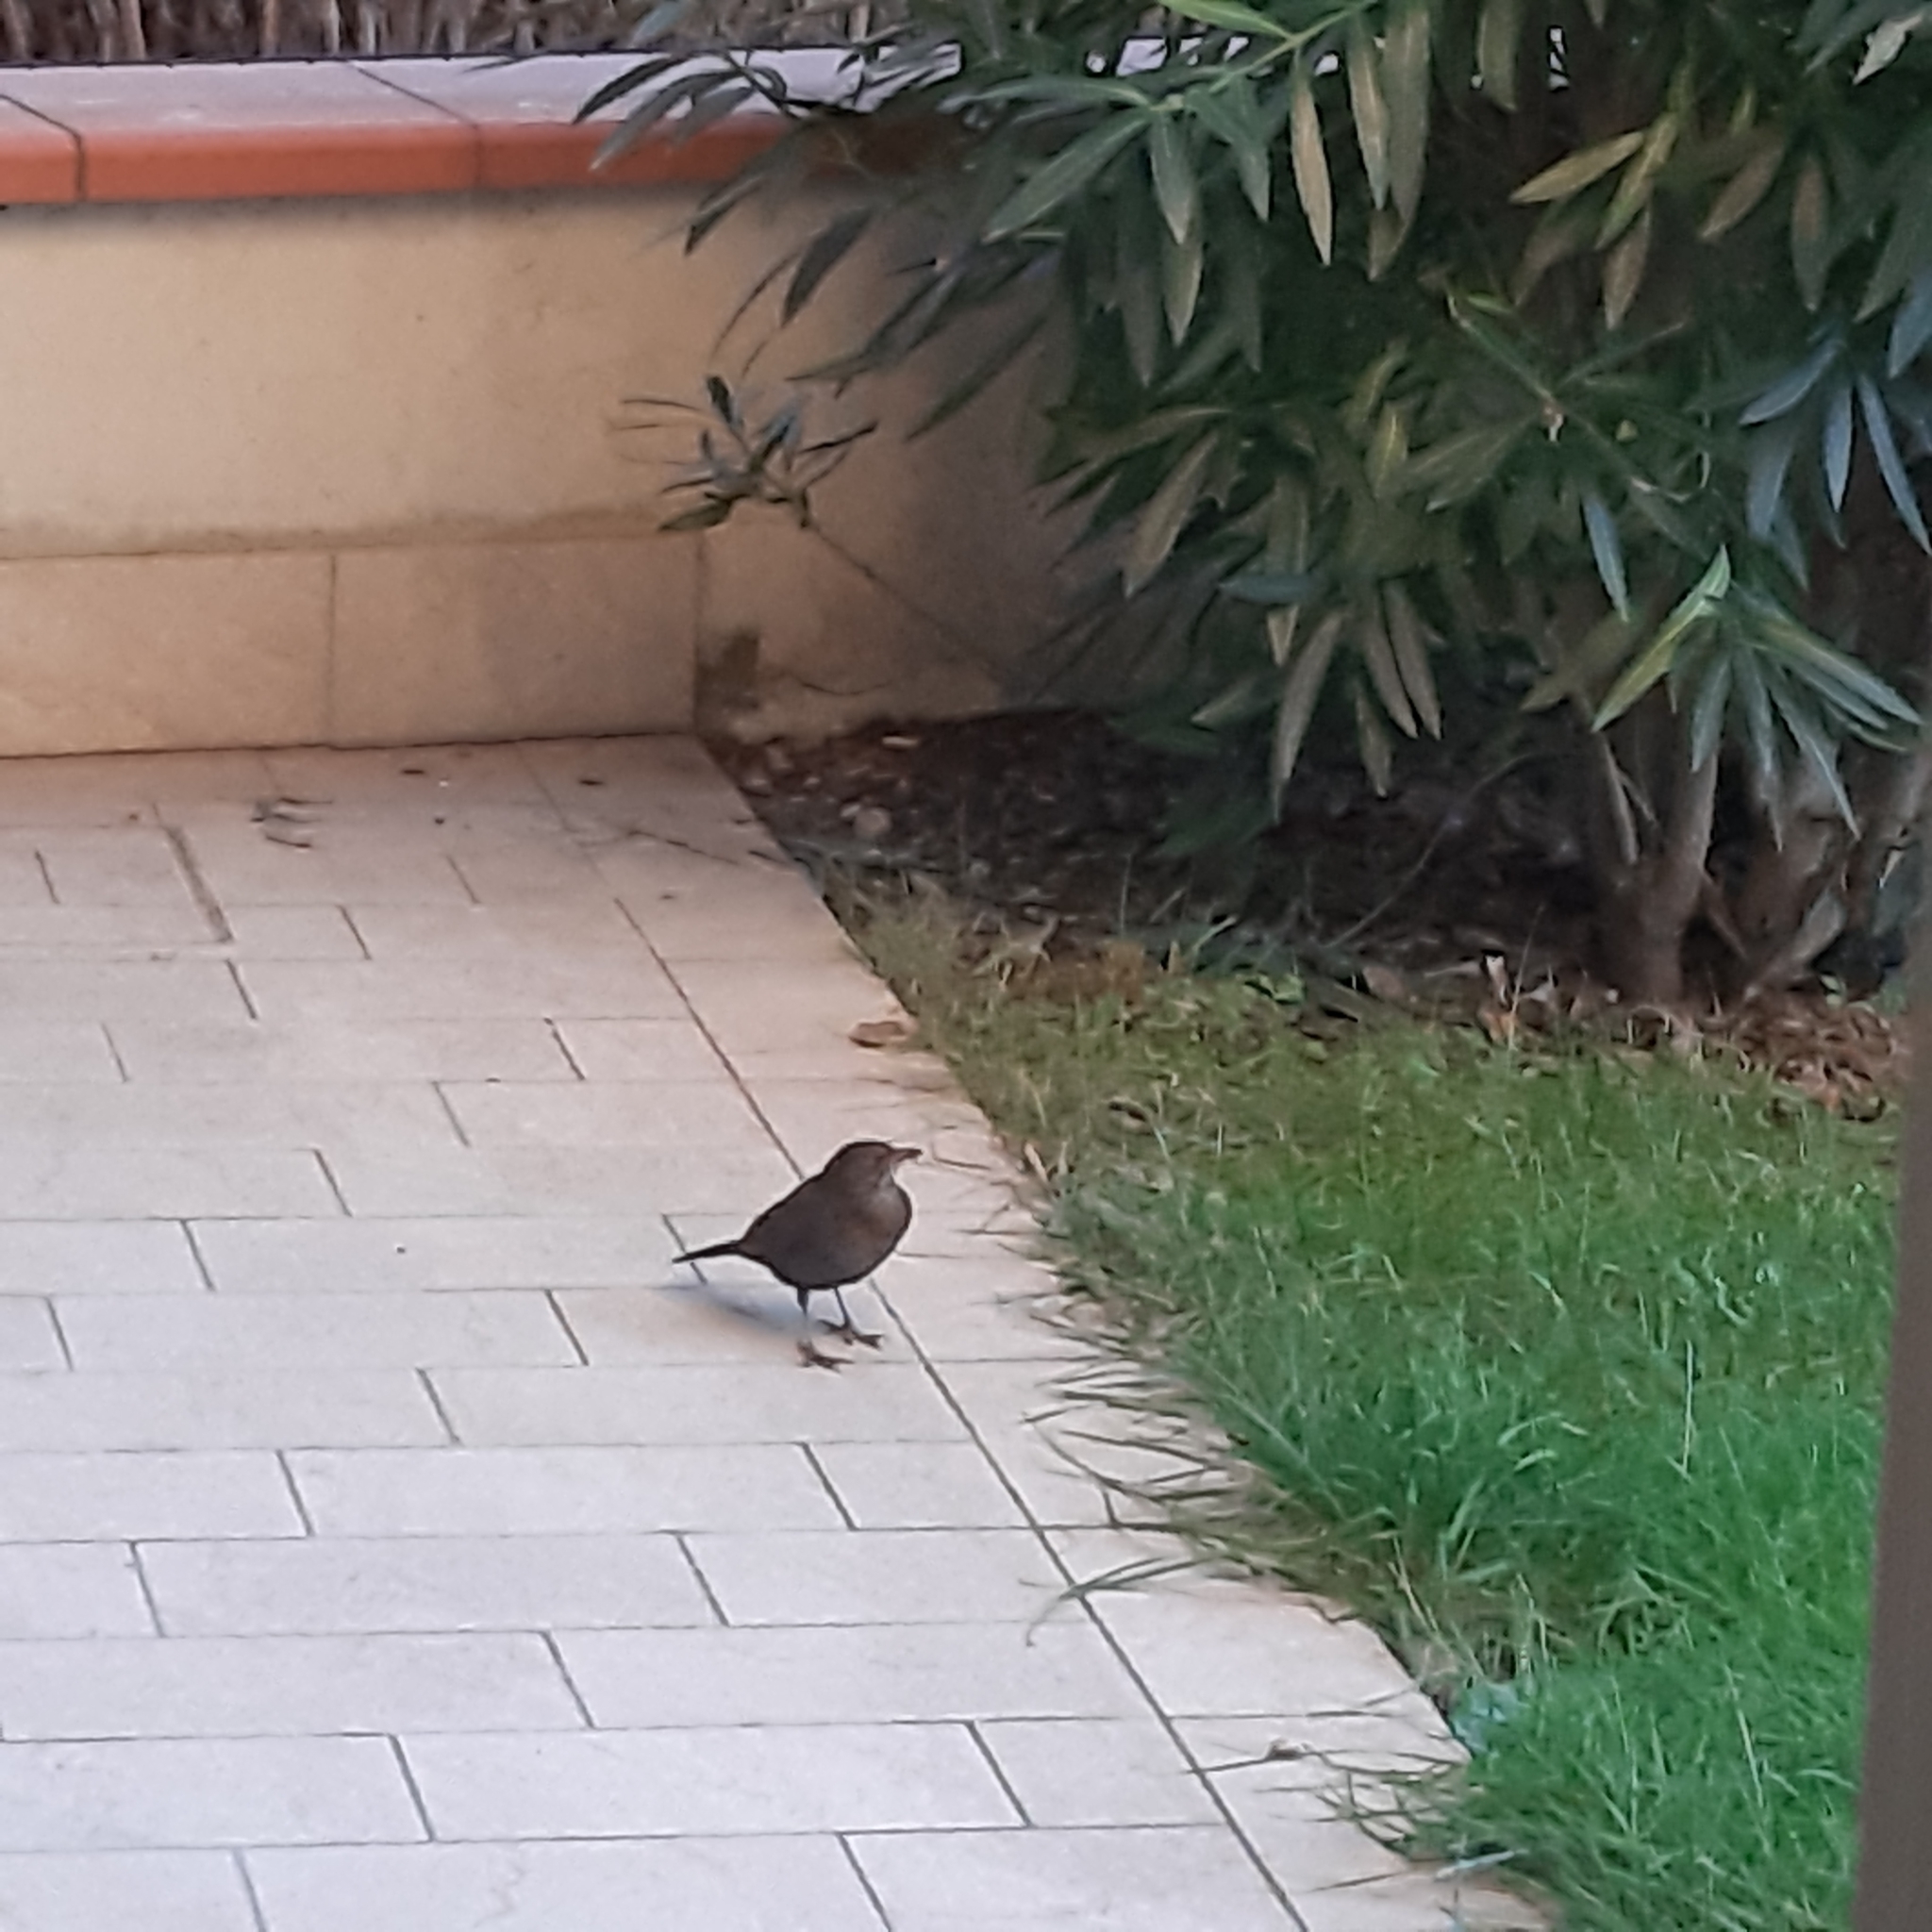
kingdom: Animalia
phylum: Chordata
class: Aves
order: Passeriformes
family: Turdidae
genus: Turdus
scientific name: Turdus merula
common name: Common blackbird
